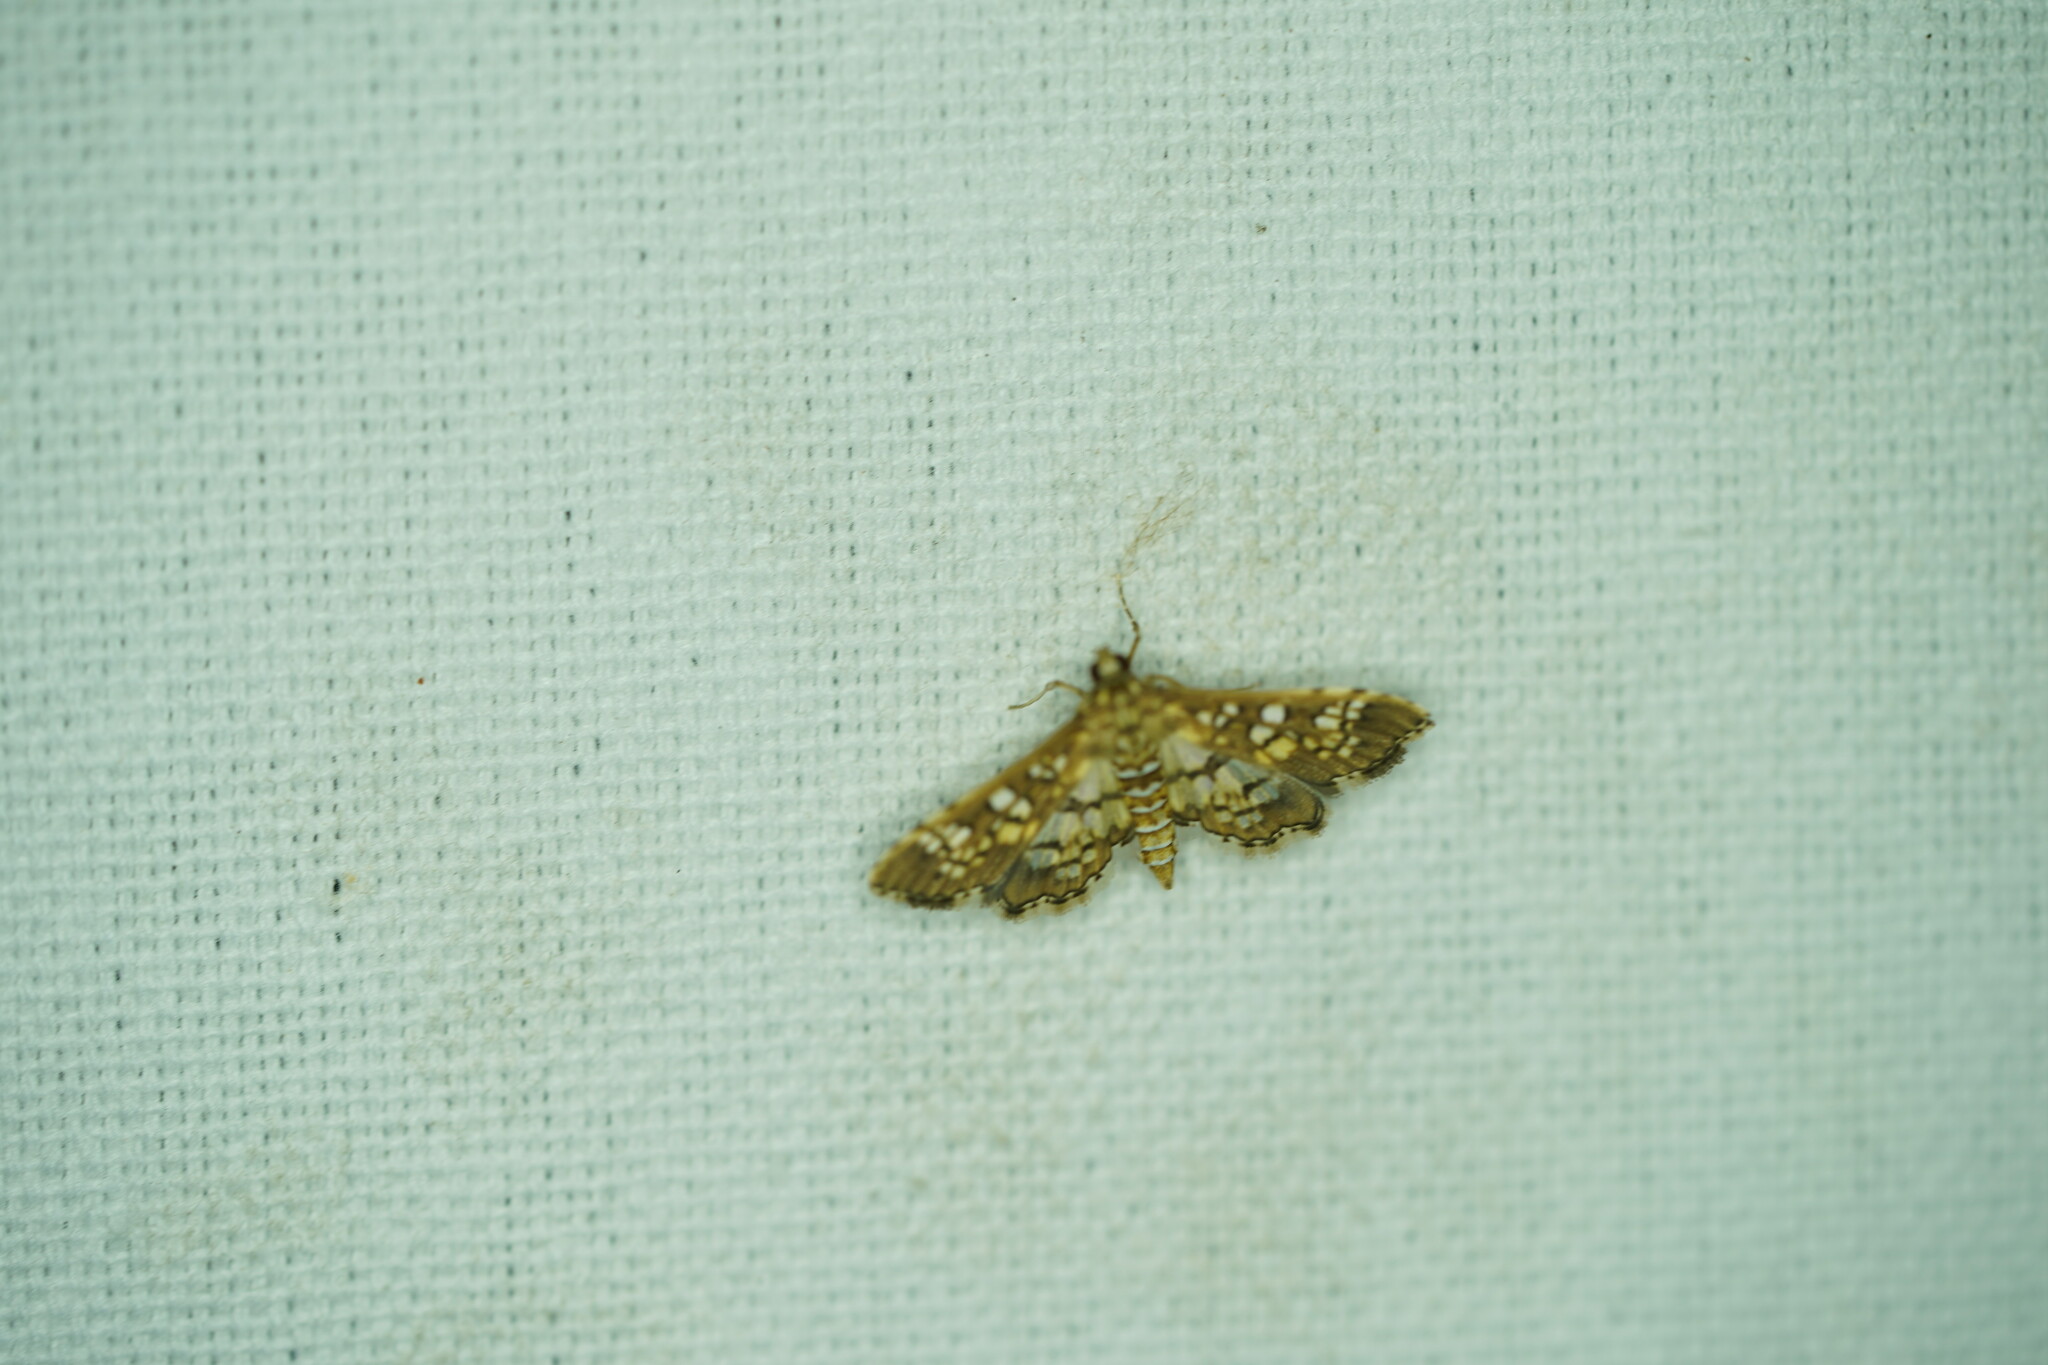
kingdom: Animalia
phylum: Arthropoda
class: Insecta
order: Lepidoptera
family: Crambidae
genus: Samea
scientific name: Samea ecclesialis
